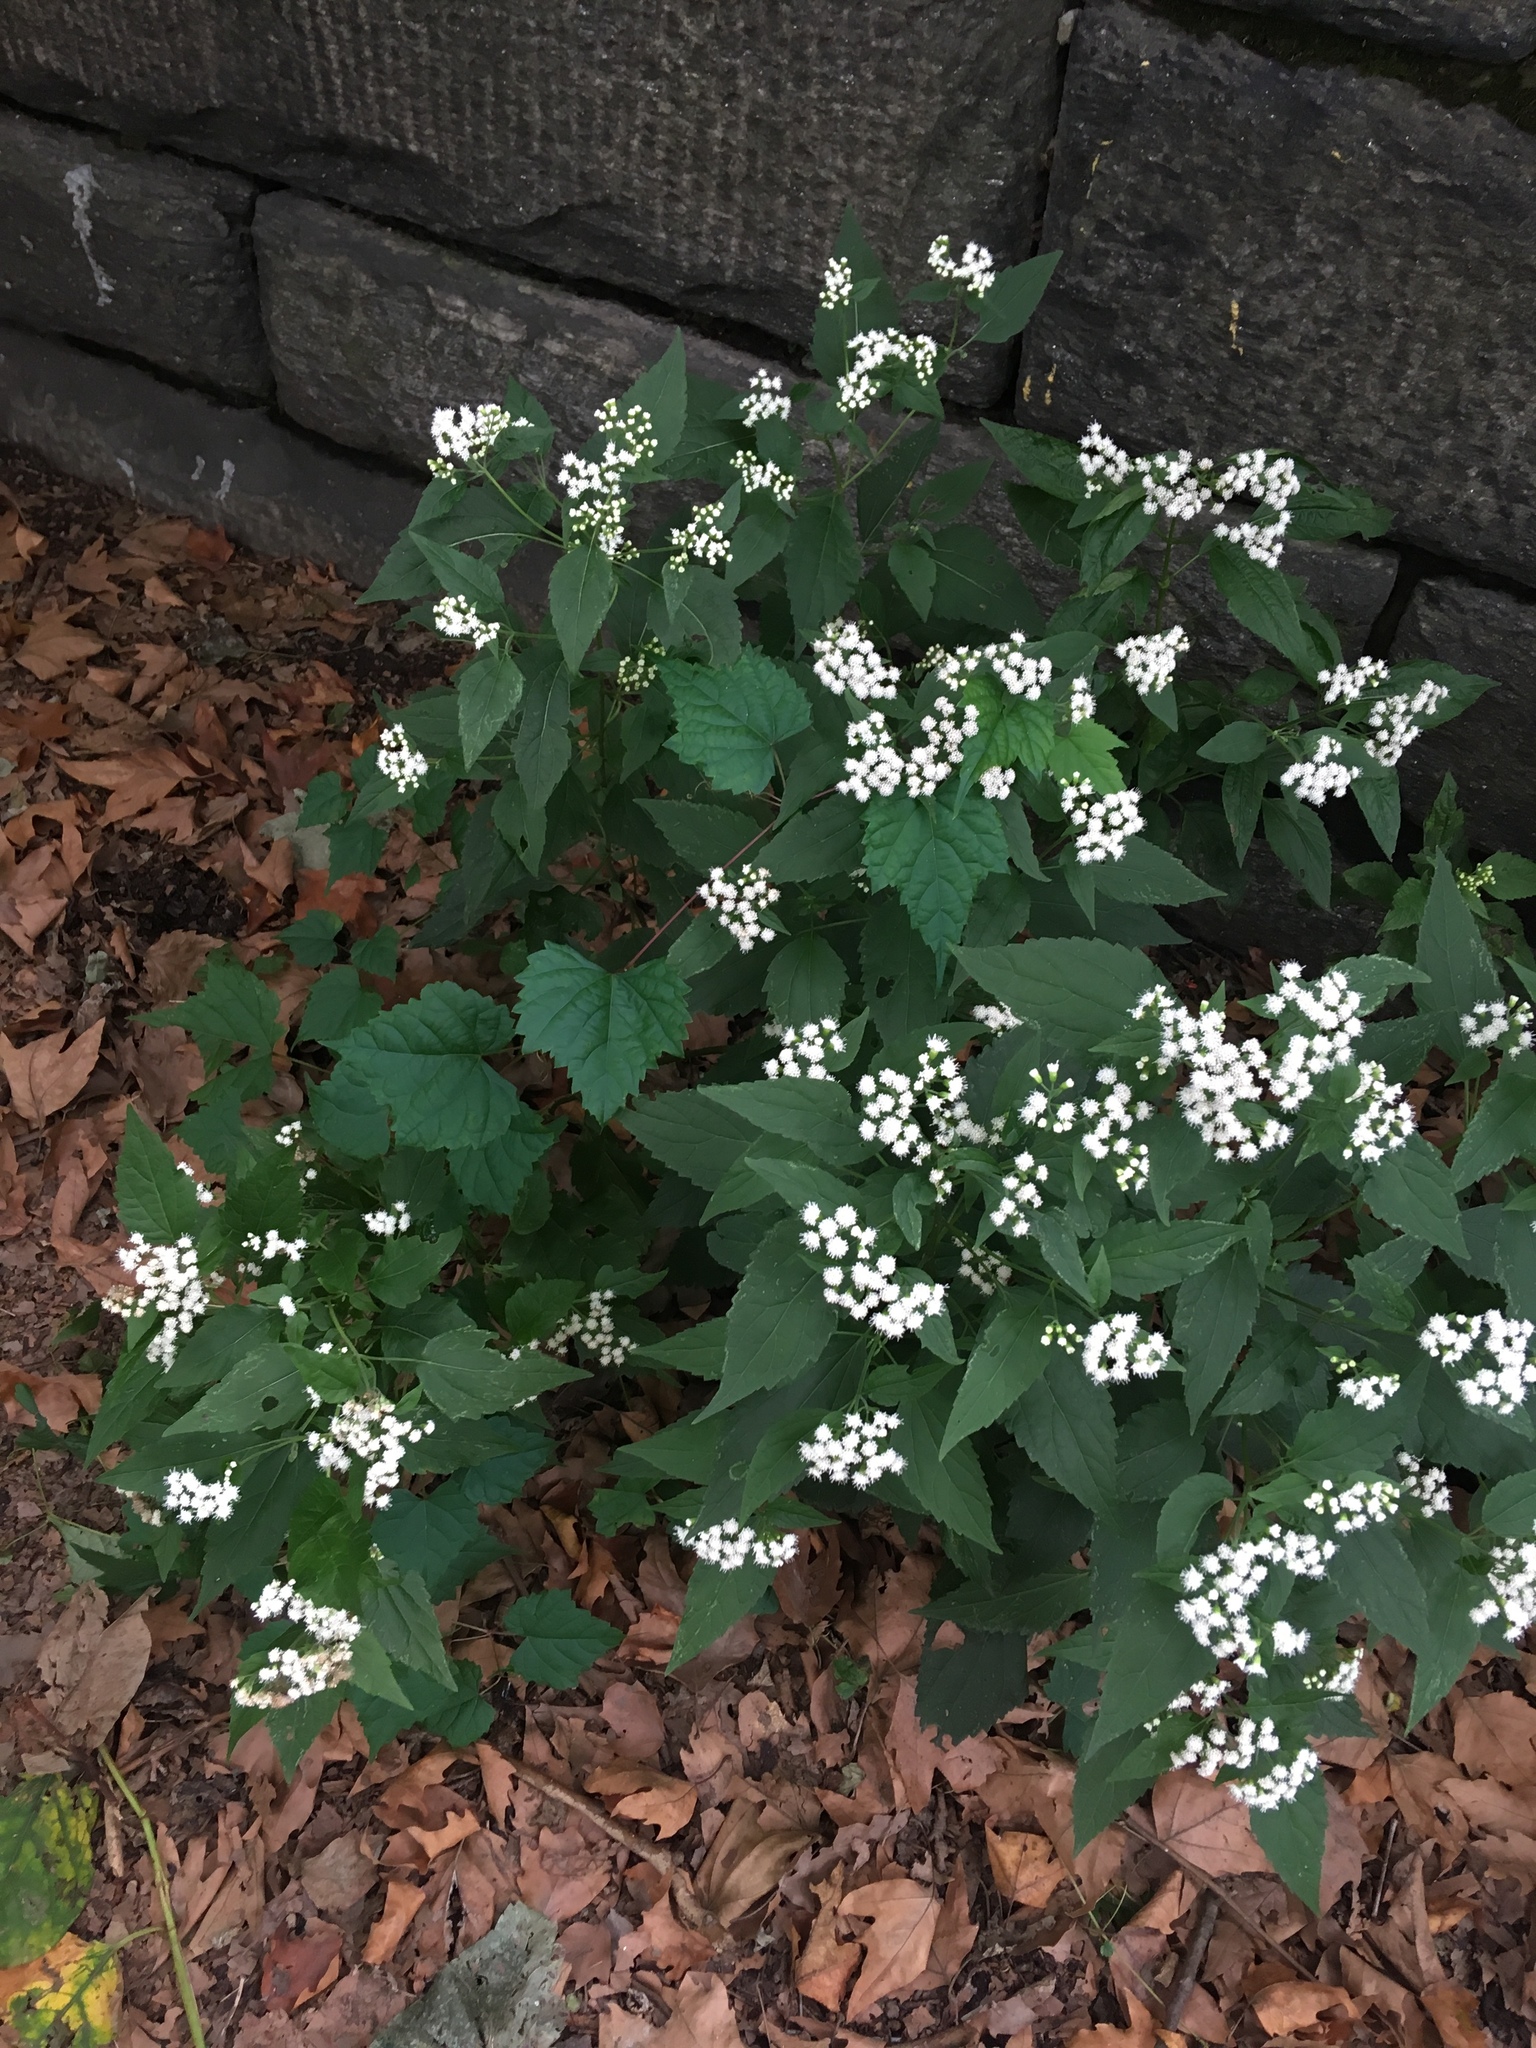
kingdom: Plantae
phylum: Tracheophyta
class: Magnoliopsida
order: Asterales
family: Asteraceae
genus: Ageratina
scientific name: Ageratina altissima
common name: White snakeroot
